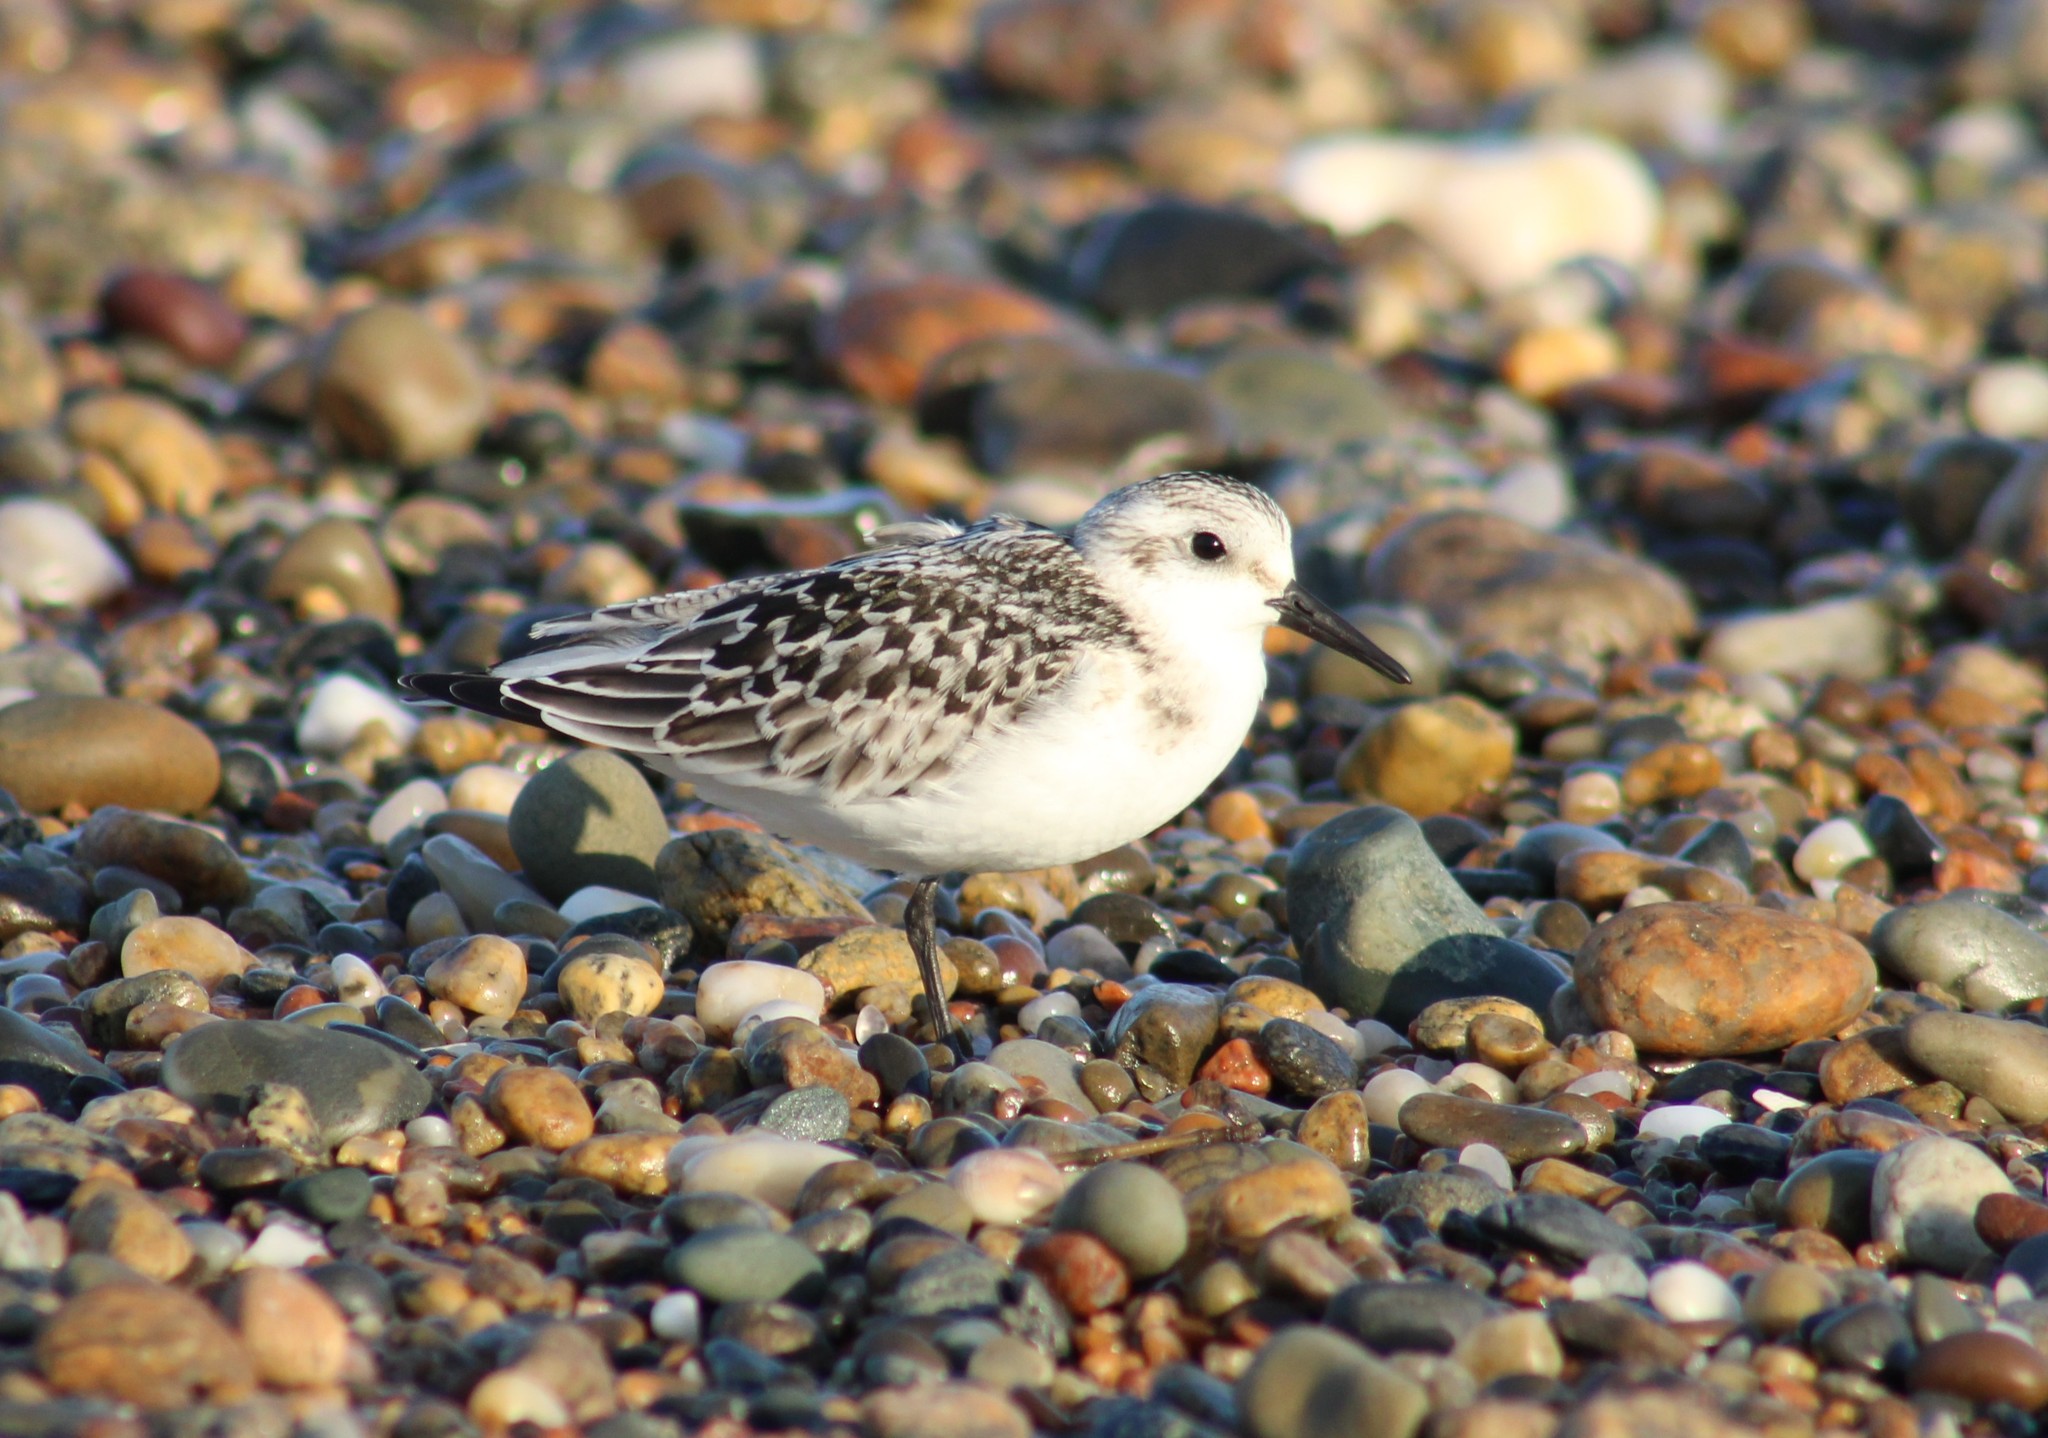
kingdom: Animalia
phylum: Chordata
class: Aves
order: Charadriiformes
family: Scolopacidae
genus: Calidris
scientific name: Calidris alba
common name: Sanderling
